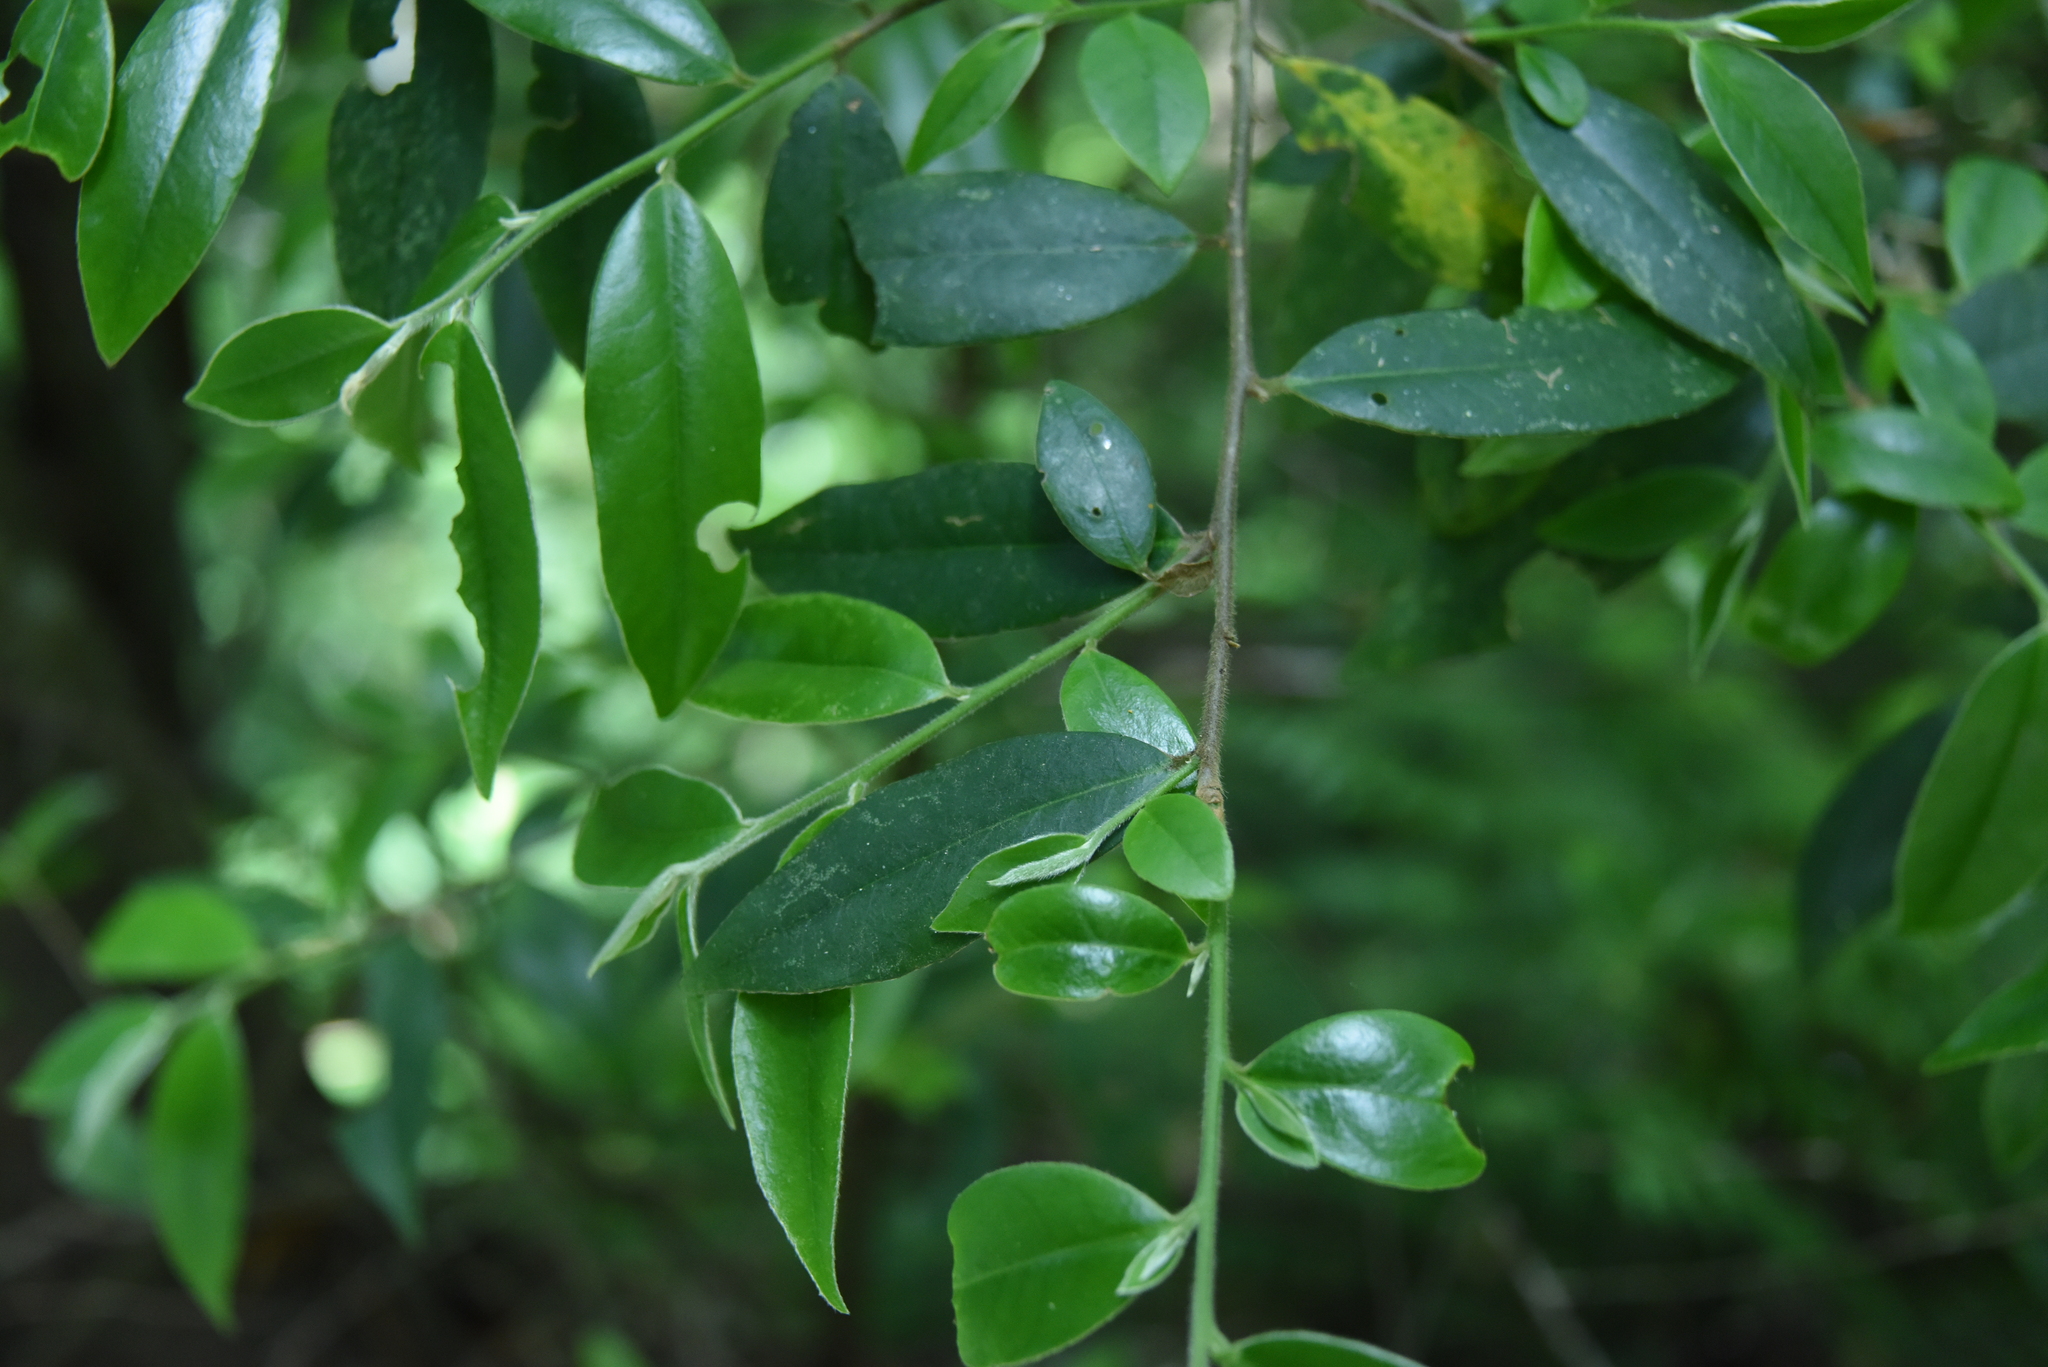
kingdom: Plantae
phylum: Tracheophyta
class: Magnoliopsida
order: Ericales
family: Pentaphylacaceae
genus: Adinandra
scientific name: Adinandra lasiostyla
